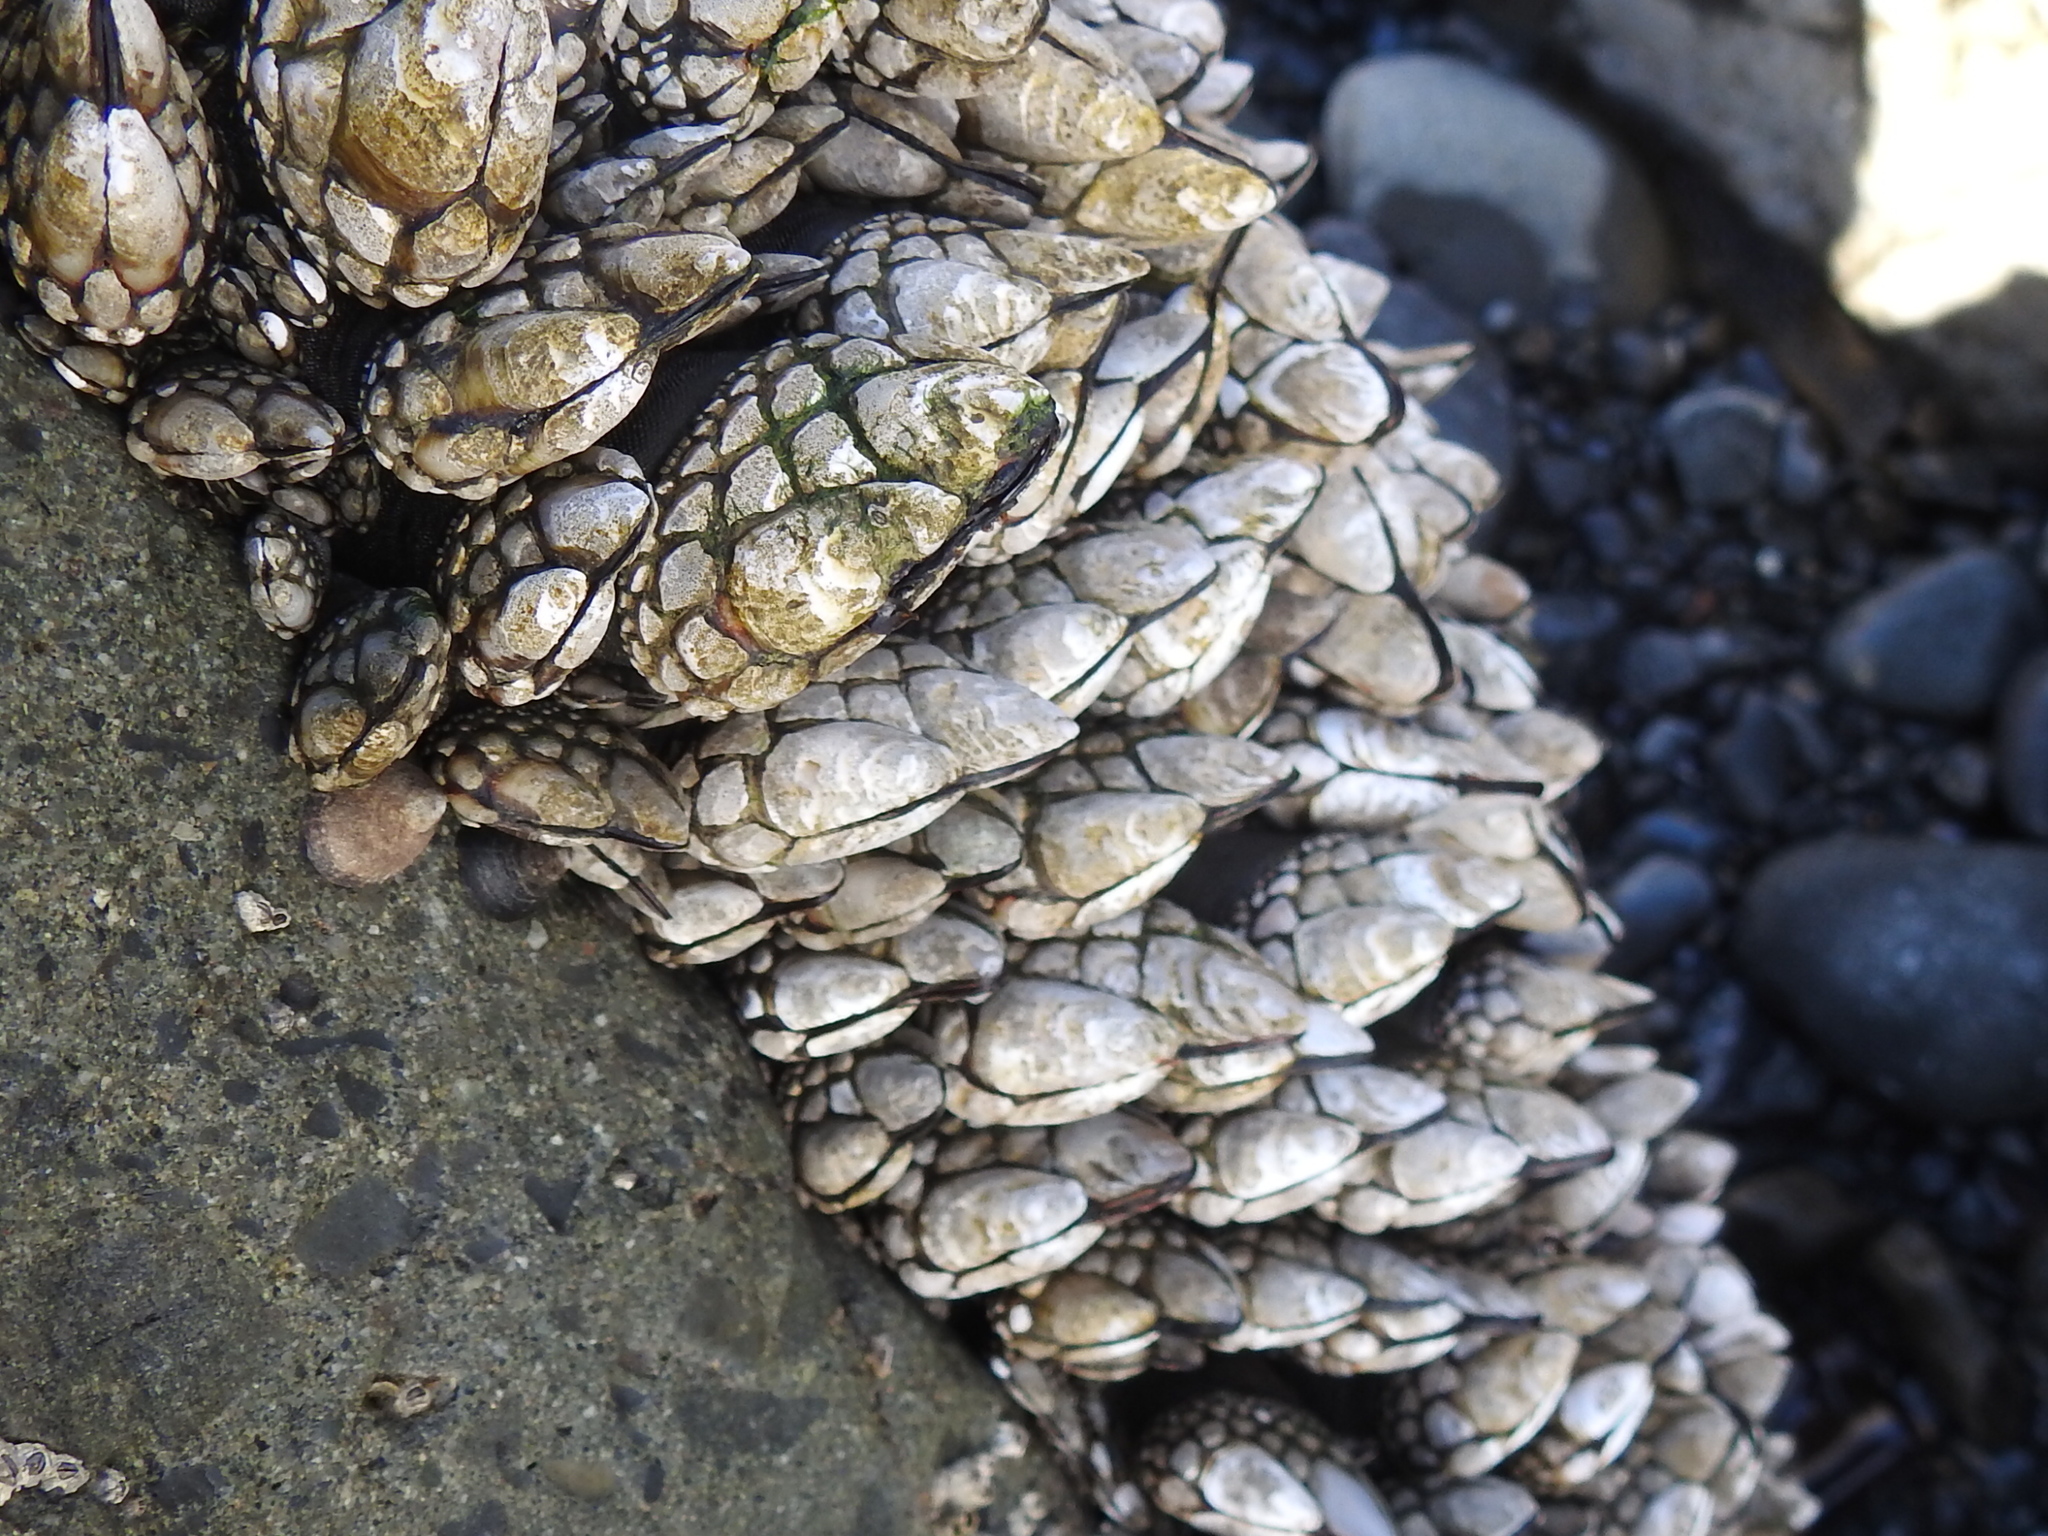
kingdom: Animalia
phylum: Arthropoda
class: Maxillopoda
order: Pedunculata
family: Pollicipedidae
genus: Pollicipes
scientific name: Pollicipes polymerus
